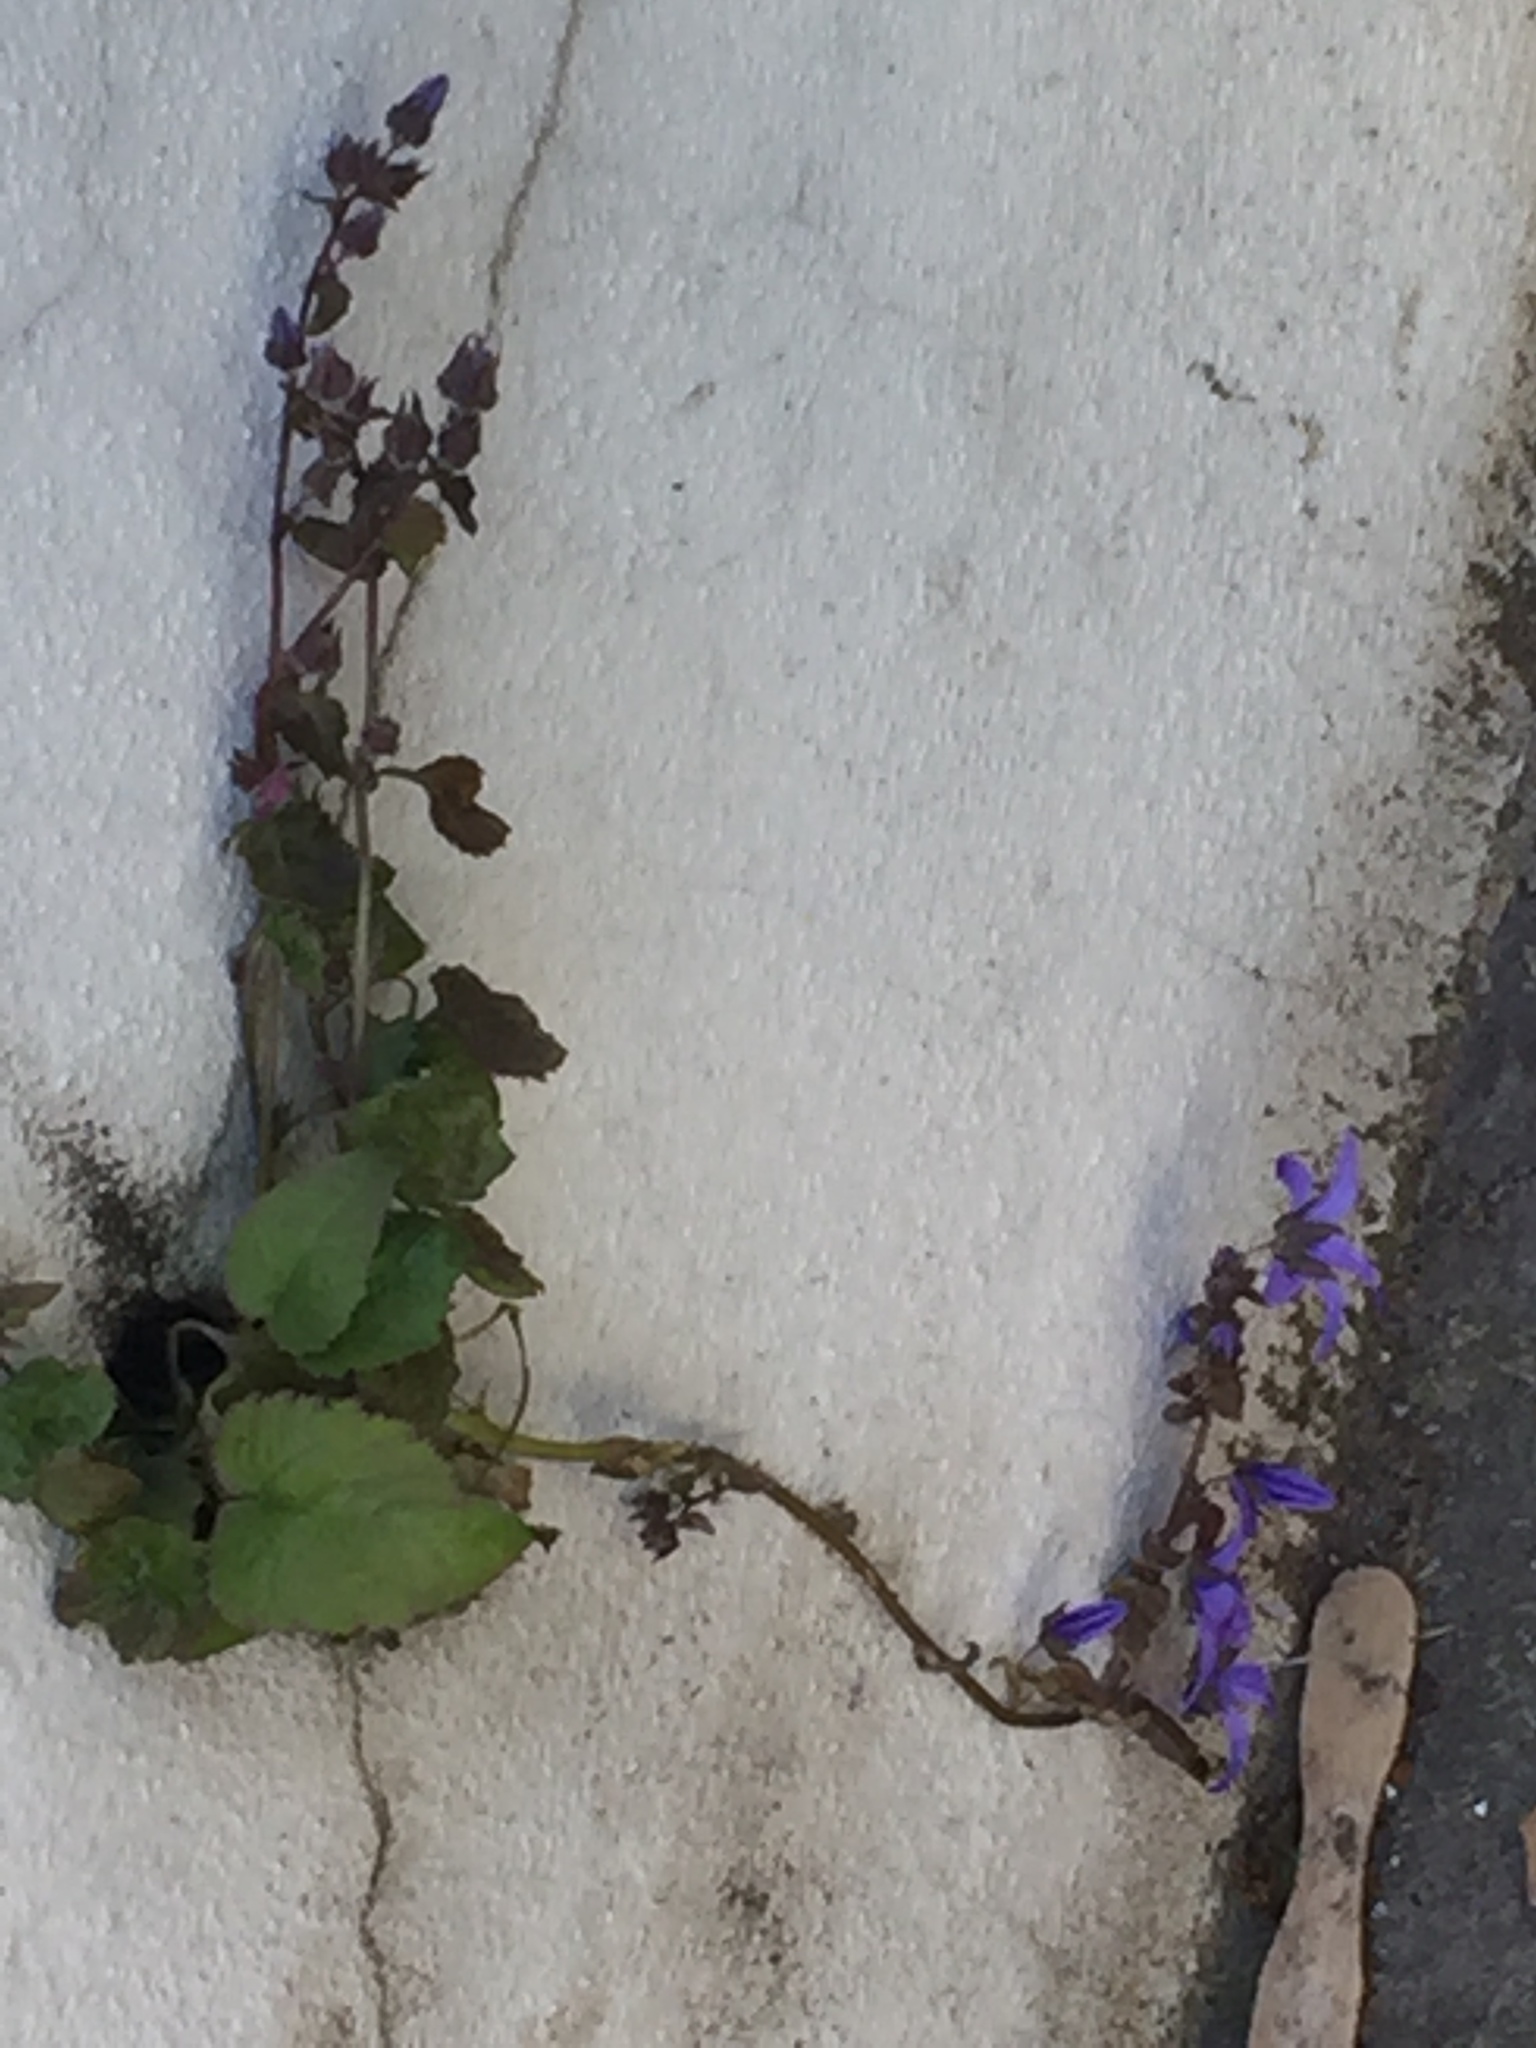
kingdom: Plantae
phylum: Tracheophyta
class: Magnoliopsida
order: Asterales
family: Campanulaceae
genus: Campanula
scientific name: Campanula poscharskyana
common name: Trailing bellflower
